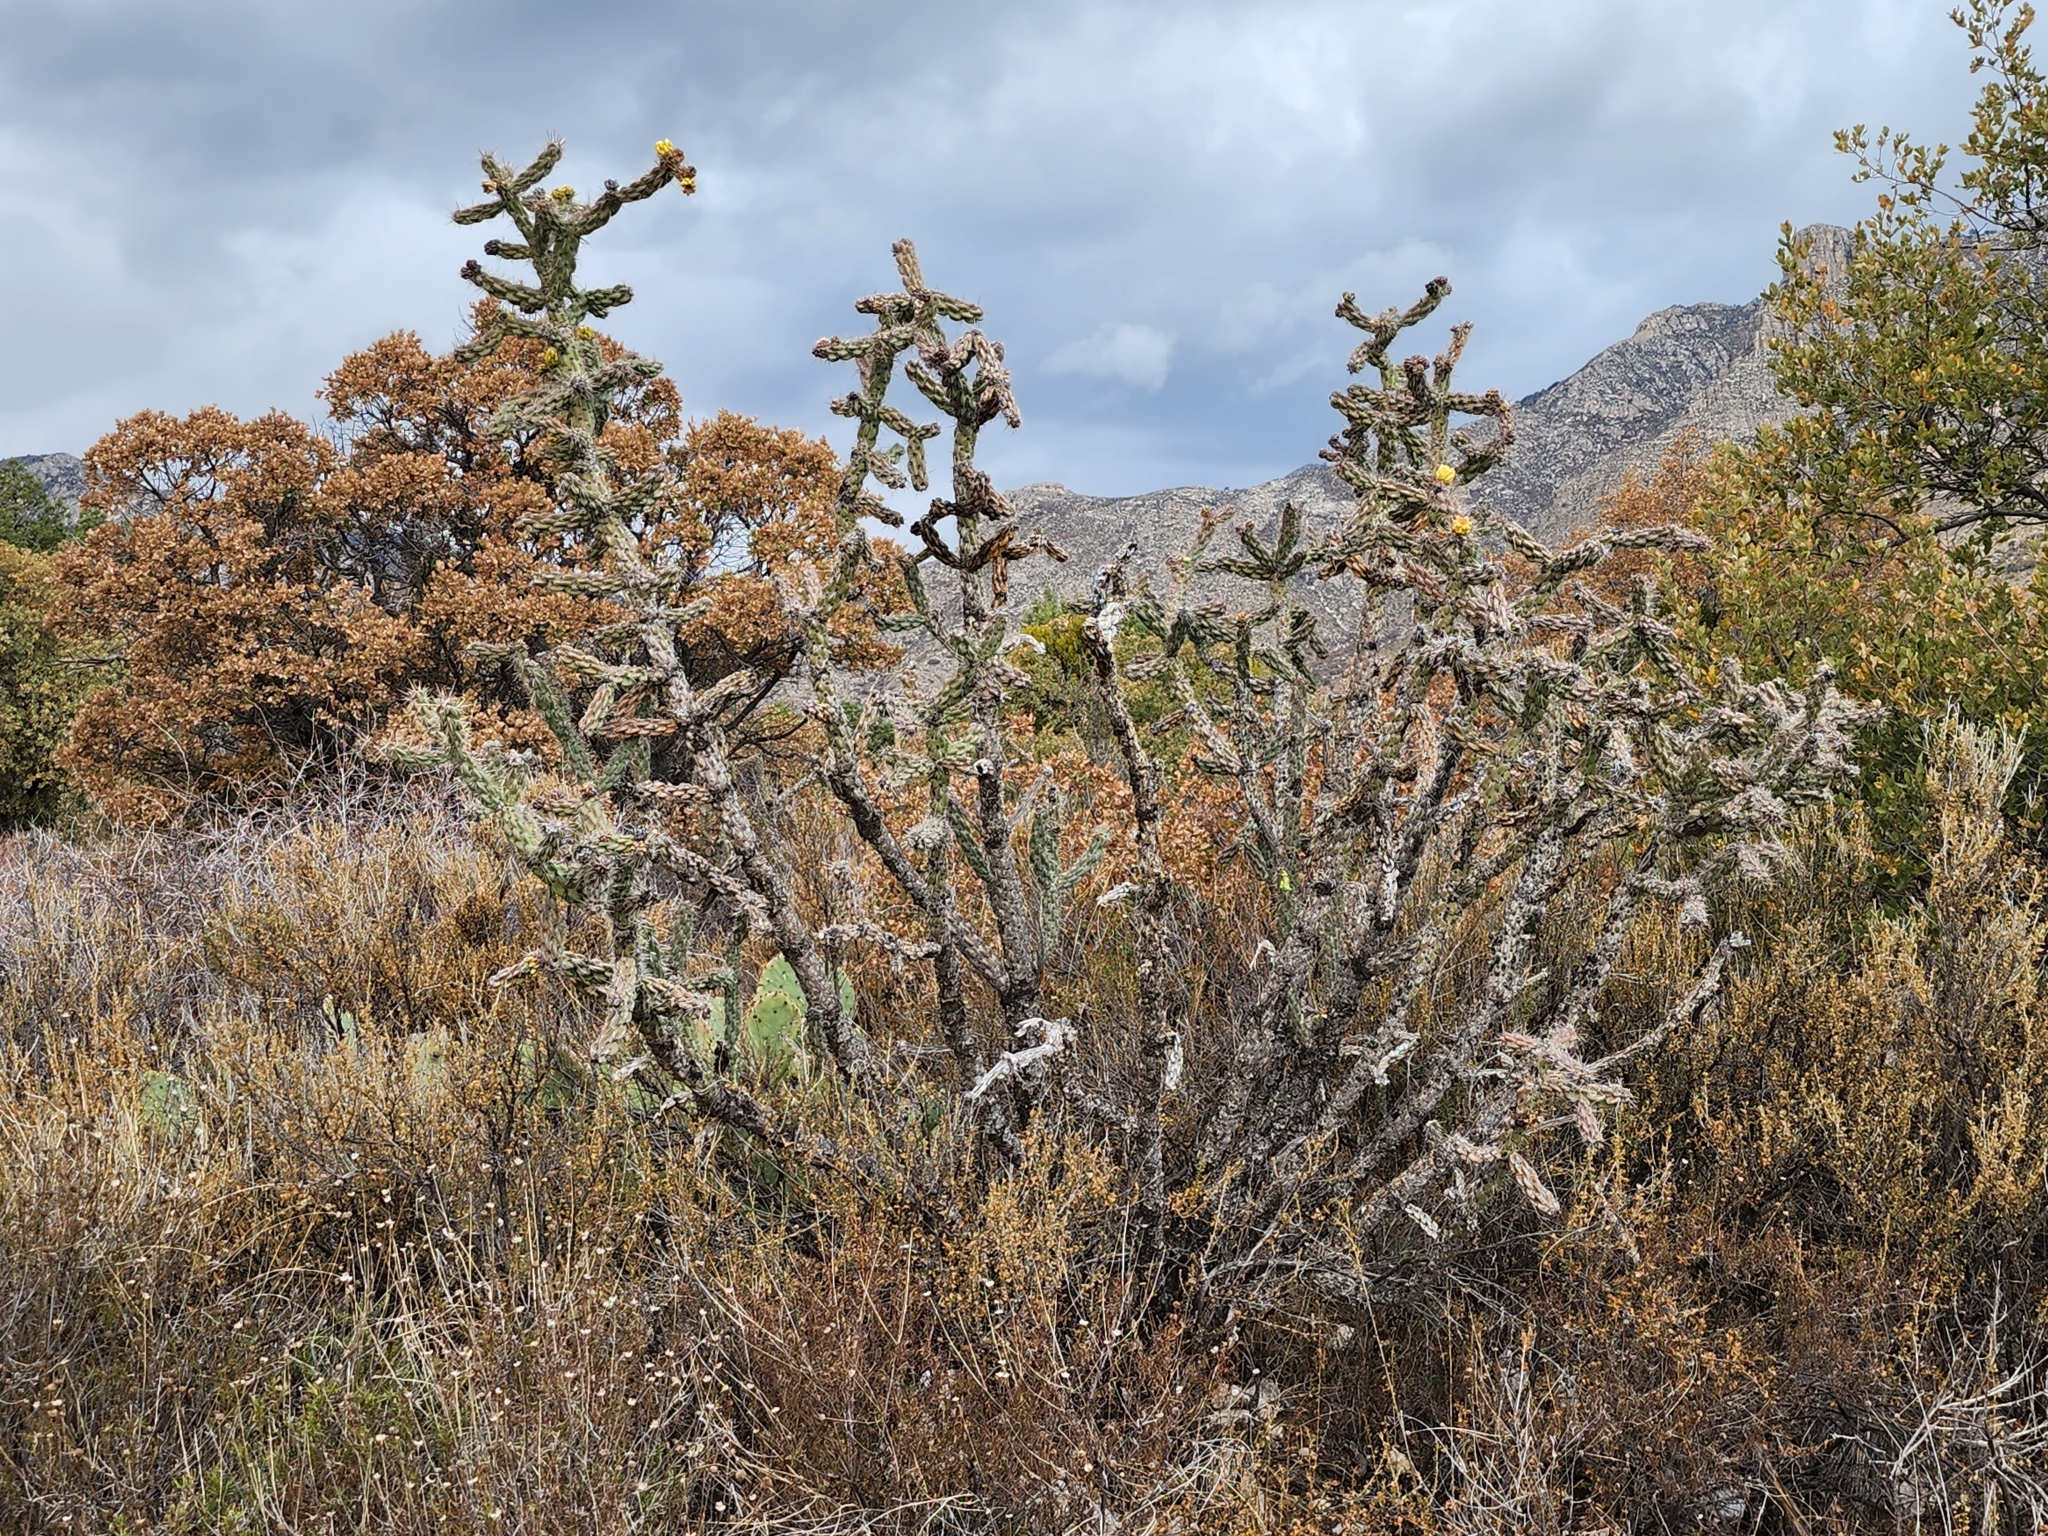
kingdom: Plantae
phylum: Tracheophyta
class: Magnoliopsida
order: Caryophyllales
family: Cactaceae
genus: Cylindropuntia
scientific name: Cylindropuntia imbricata
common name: Candelabrum cactus
